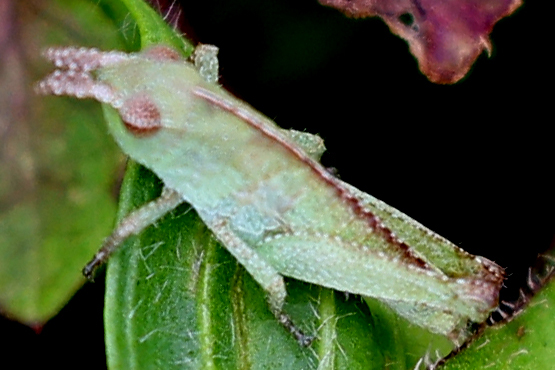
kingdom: Animalia
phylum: Arthropoda
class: Insecta
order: Orthoptera
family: Acrididae
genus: Chortophaga
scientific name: Chortophaga viridifasciata
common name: Green-striped grasshopper
